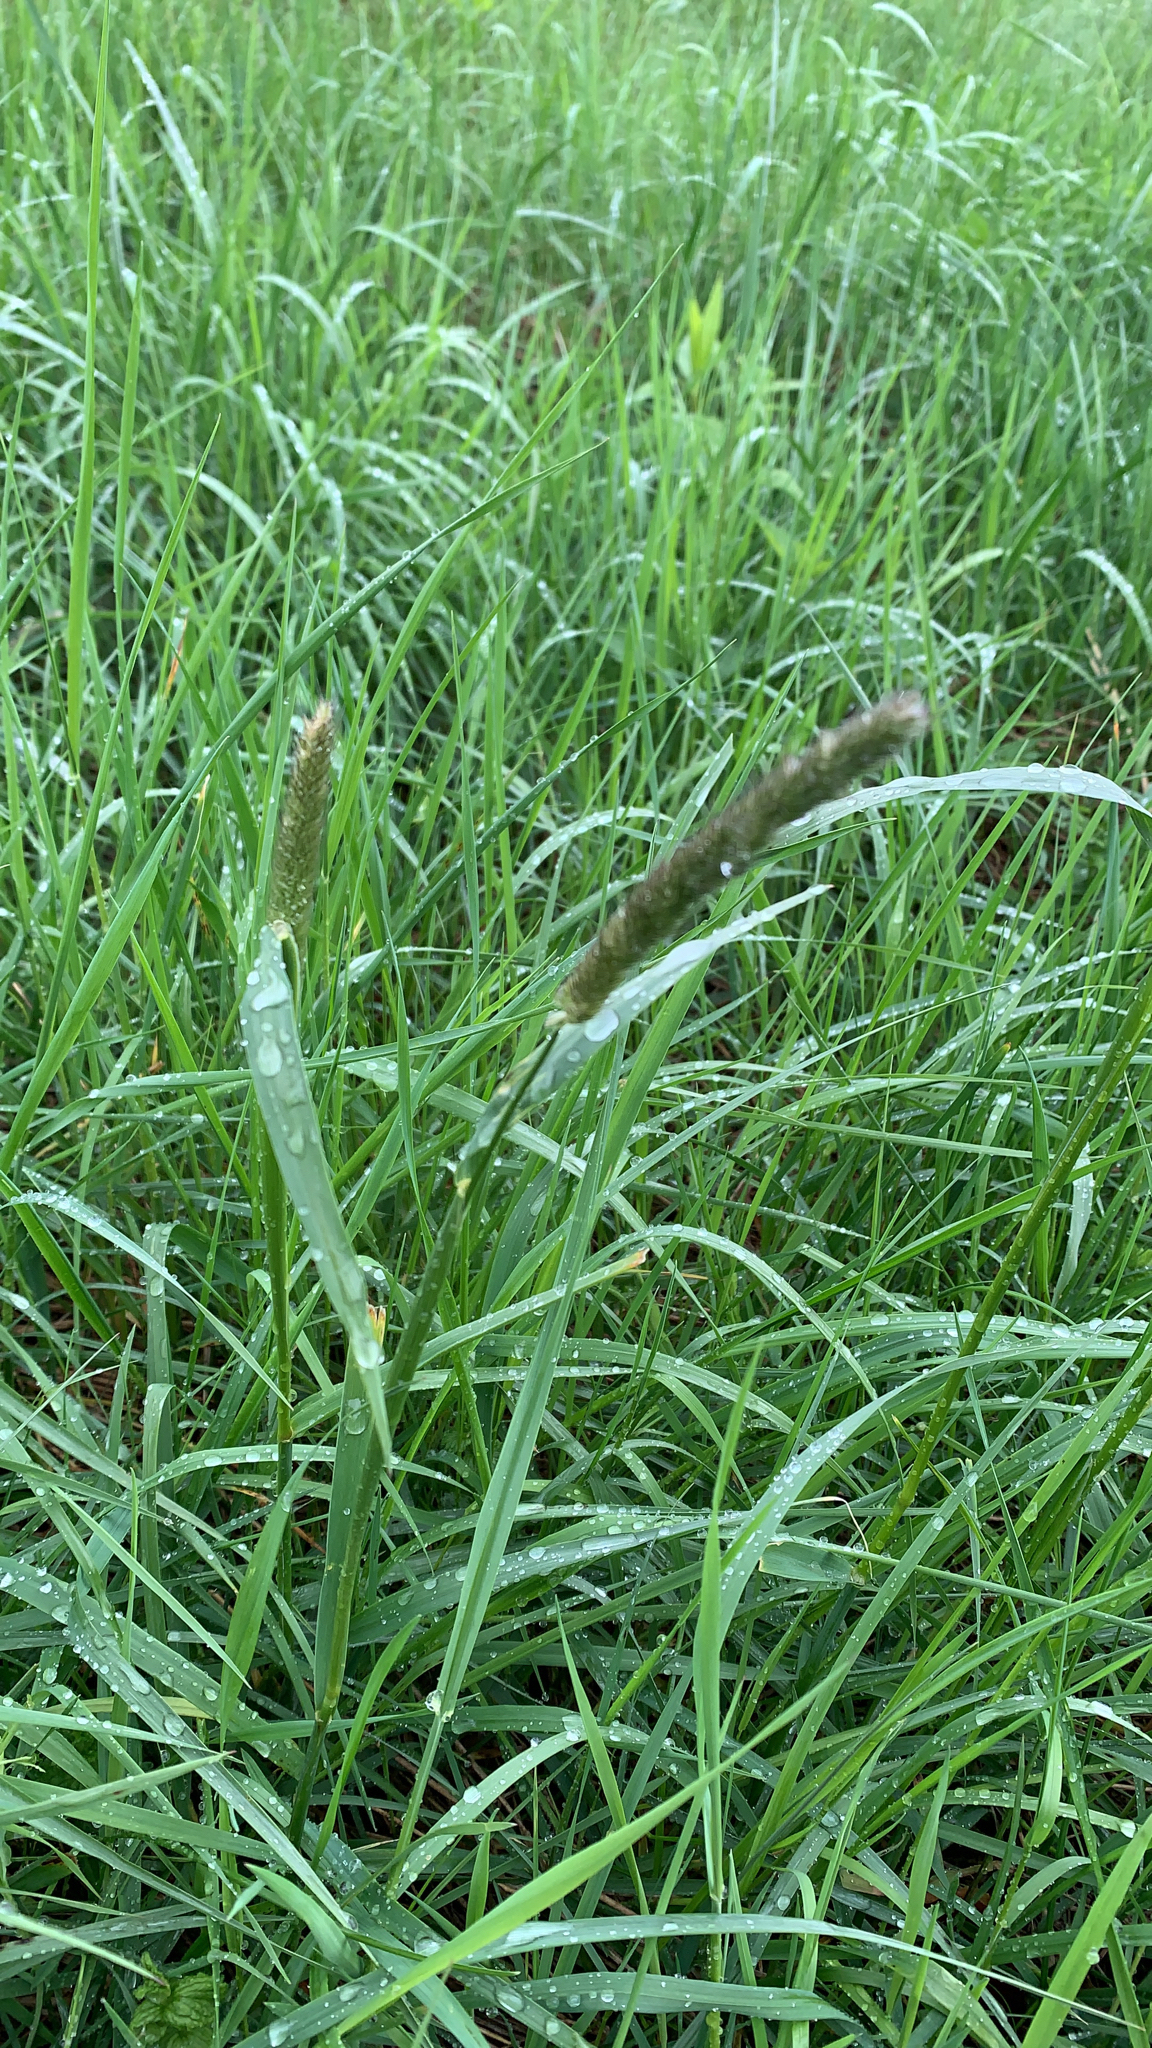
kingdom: Plantae
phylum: Tracheophyta
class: Liliopsida
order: Poales
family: Poaceae
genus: Alopecurus
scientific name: Alopecurus pratensis
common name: Meadow foxtail
